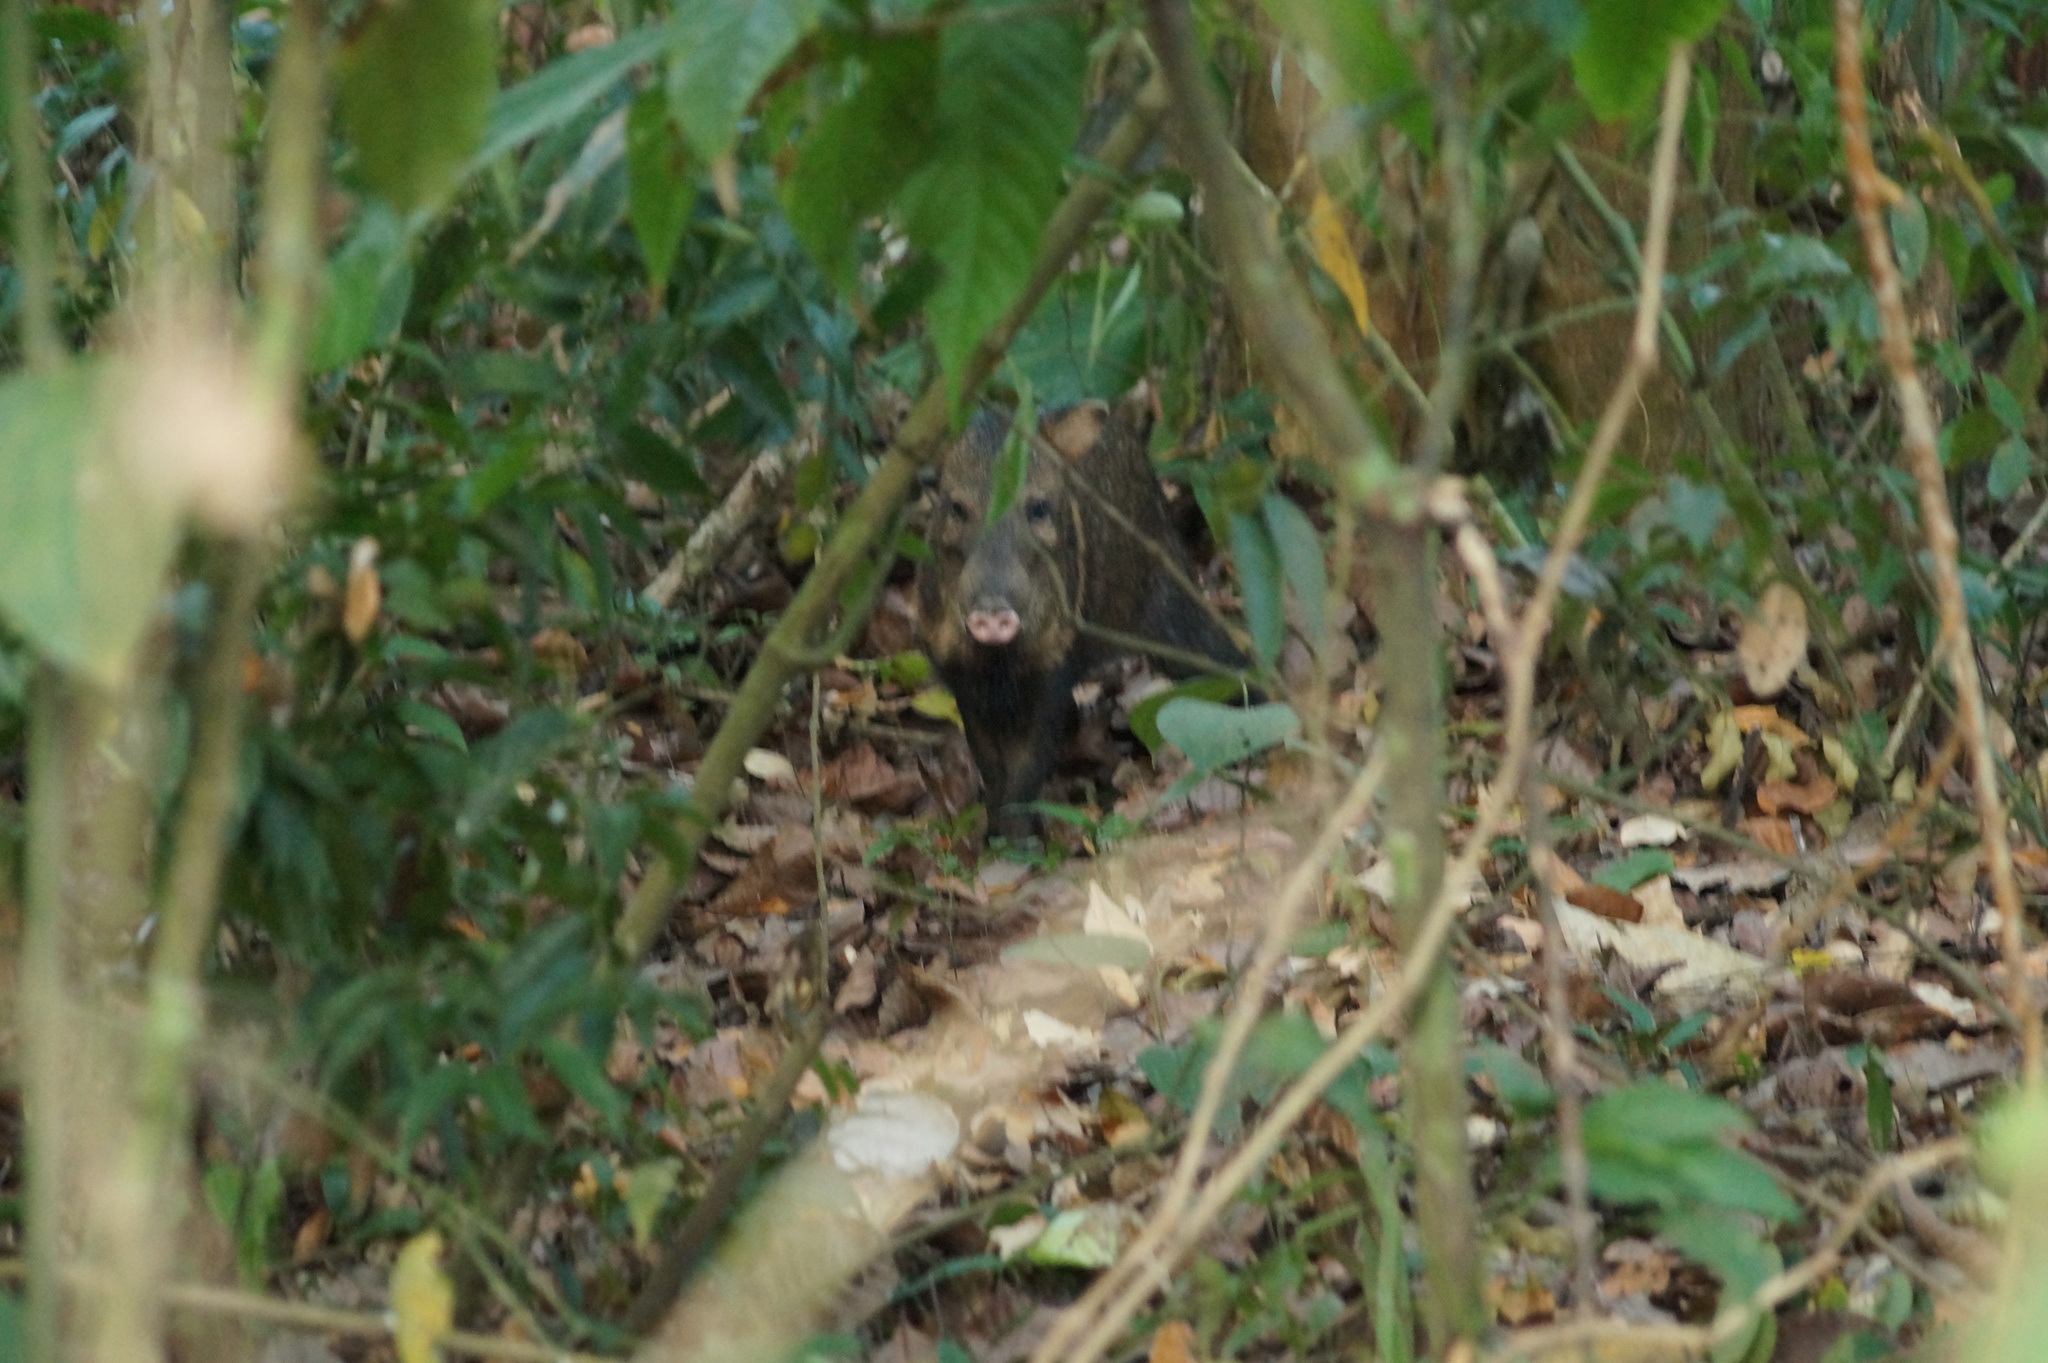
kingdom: Animalia
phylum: Chordata
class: Mammalia
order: Artiodactyla
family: Tayassuidae
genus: Pecari
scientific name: Pecari tajacu
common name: Collared peccary
